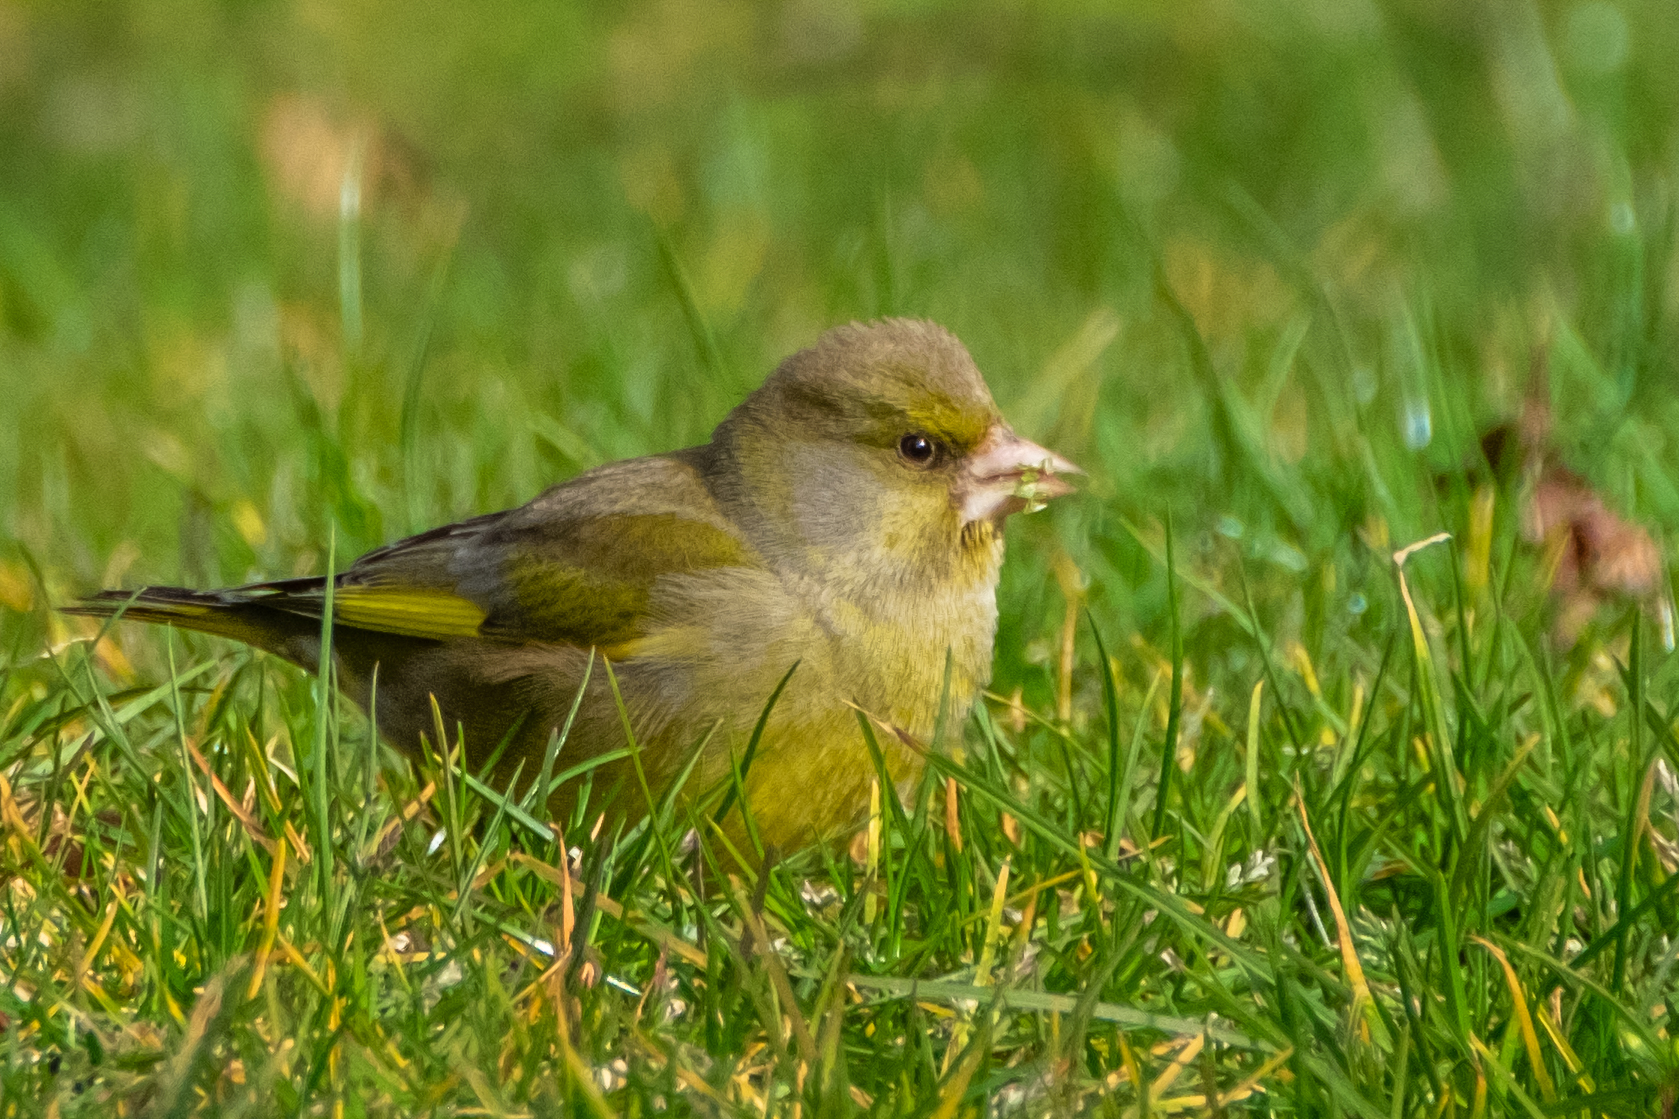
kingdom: Plantae
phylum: Tracheophyta
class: Liliopsida
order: Poales
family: Poaceae
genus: Chloris
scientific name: Chloris chloris
